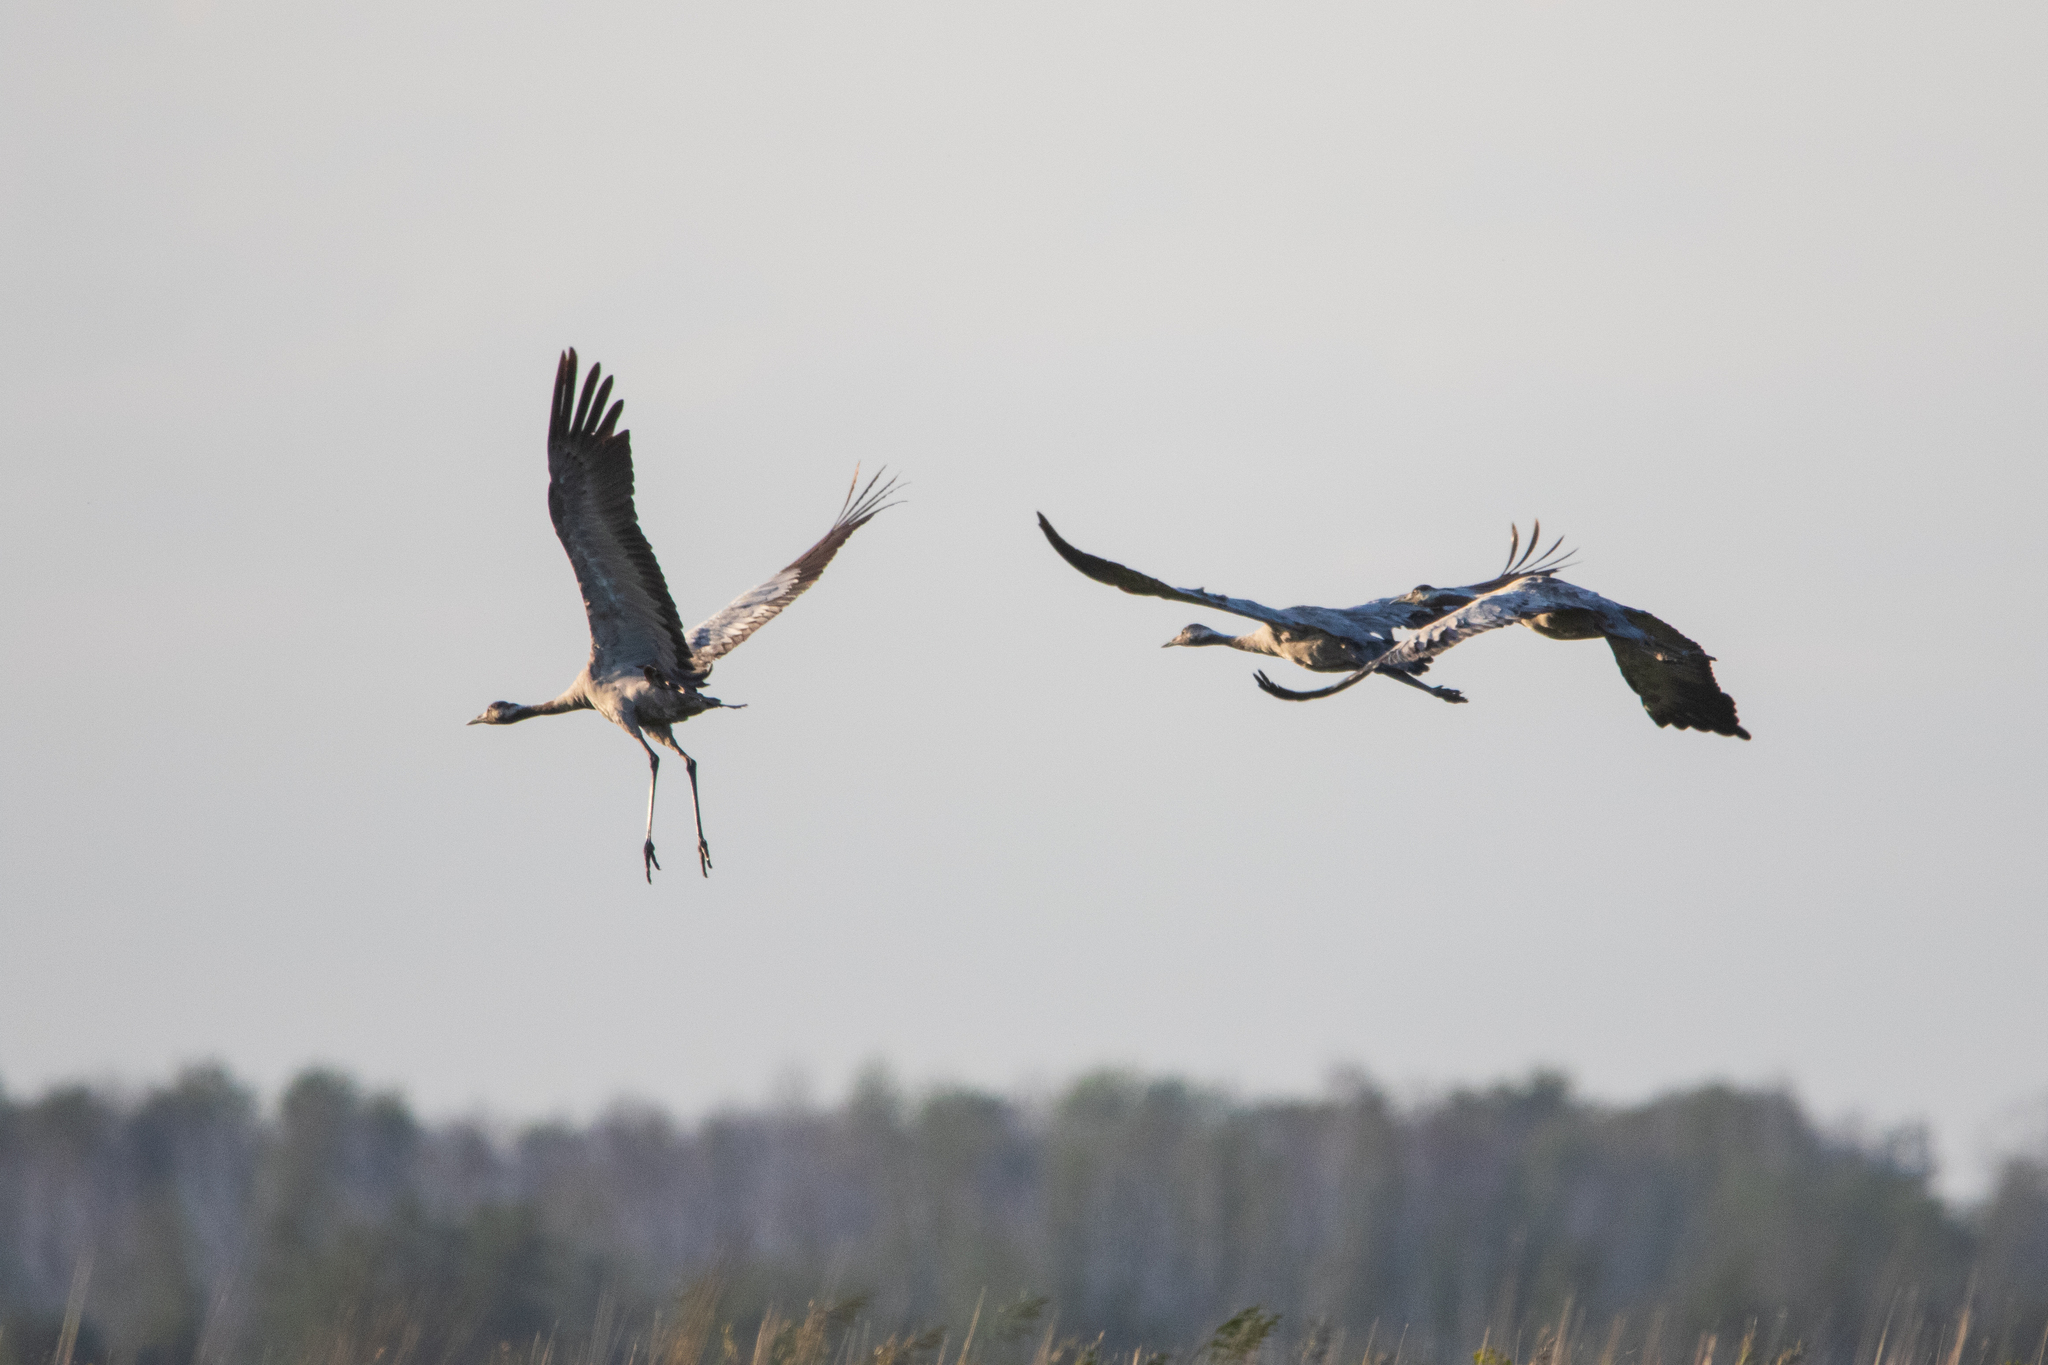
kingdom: Animalia
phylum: Chordata
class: Aves
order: Gruiformes
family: Gruidae
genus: Grus
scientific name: Grus grus
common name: Common crane
